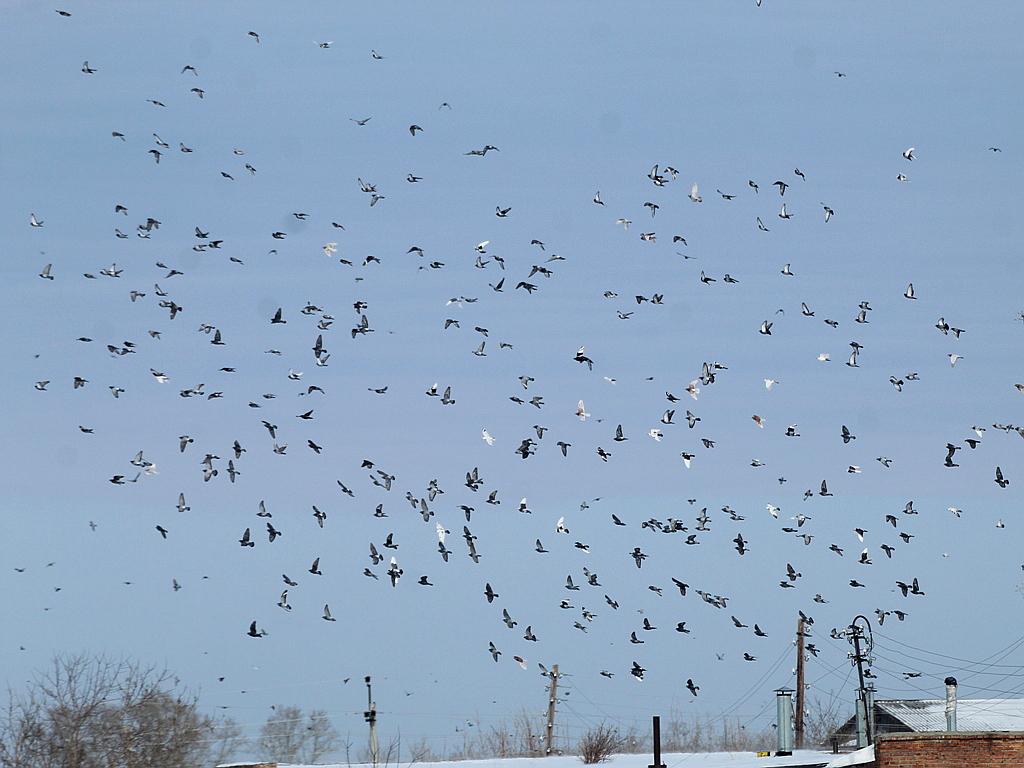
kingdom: Animalia
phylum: Chordata
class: Aves
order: Columbiformes
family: Columbidae
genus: Columba
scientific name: Columba livia
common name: Rock pigeon
